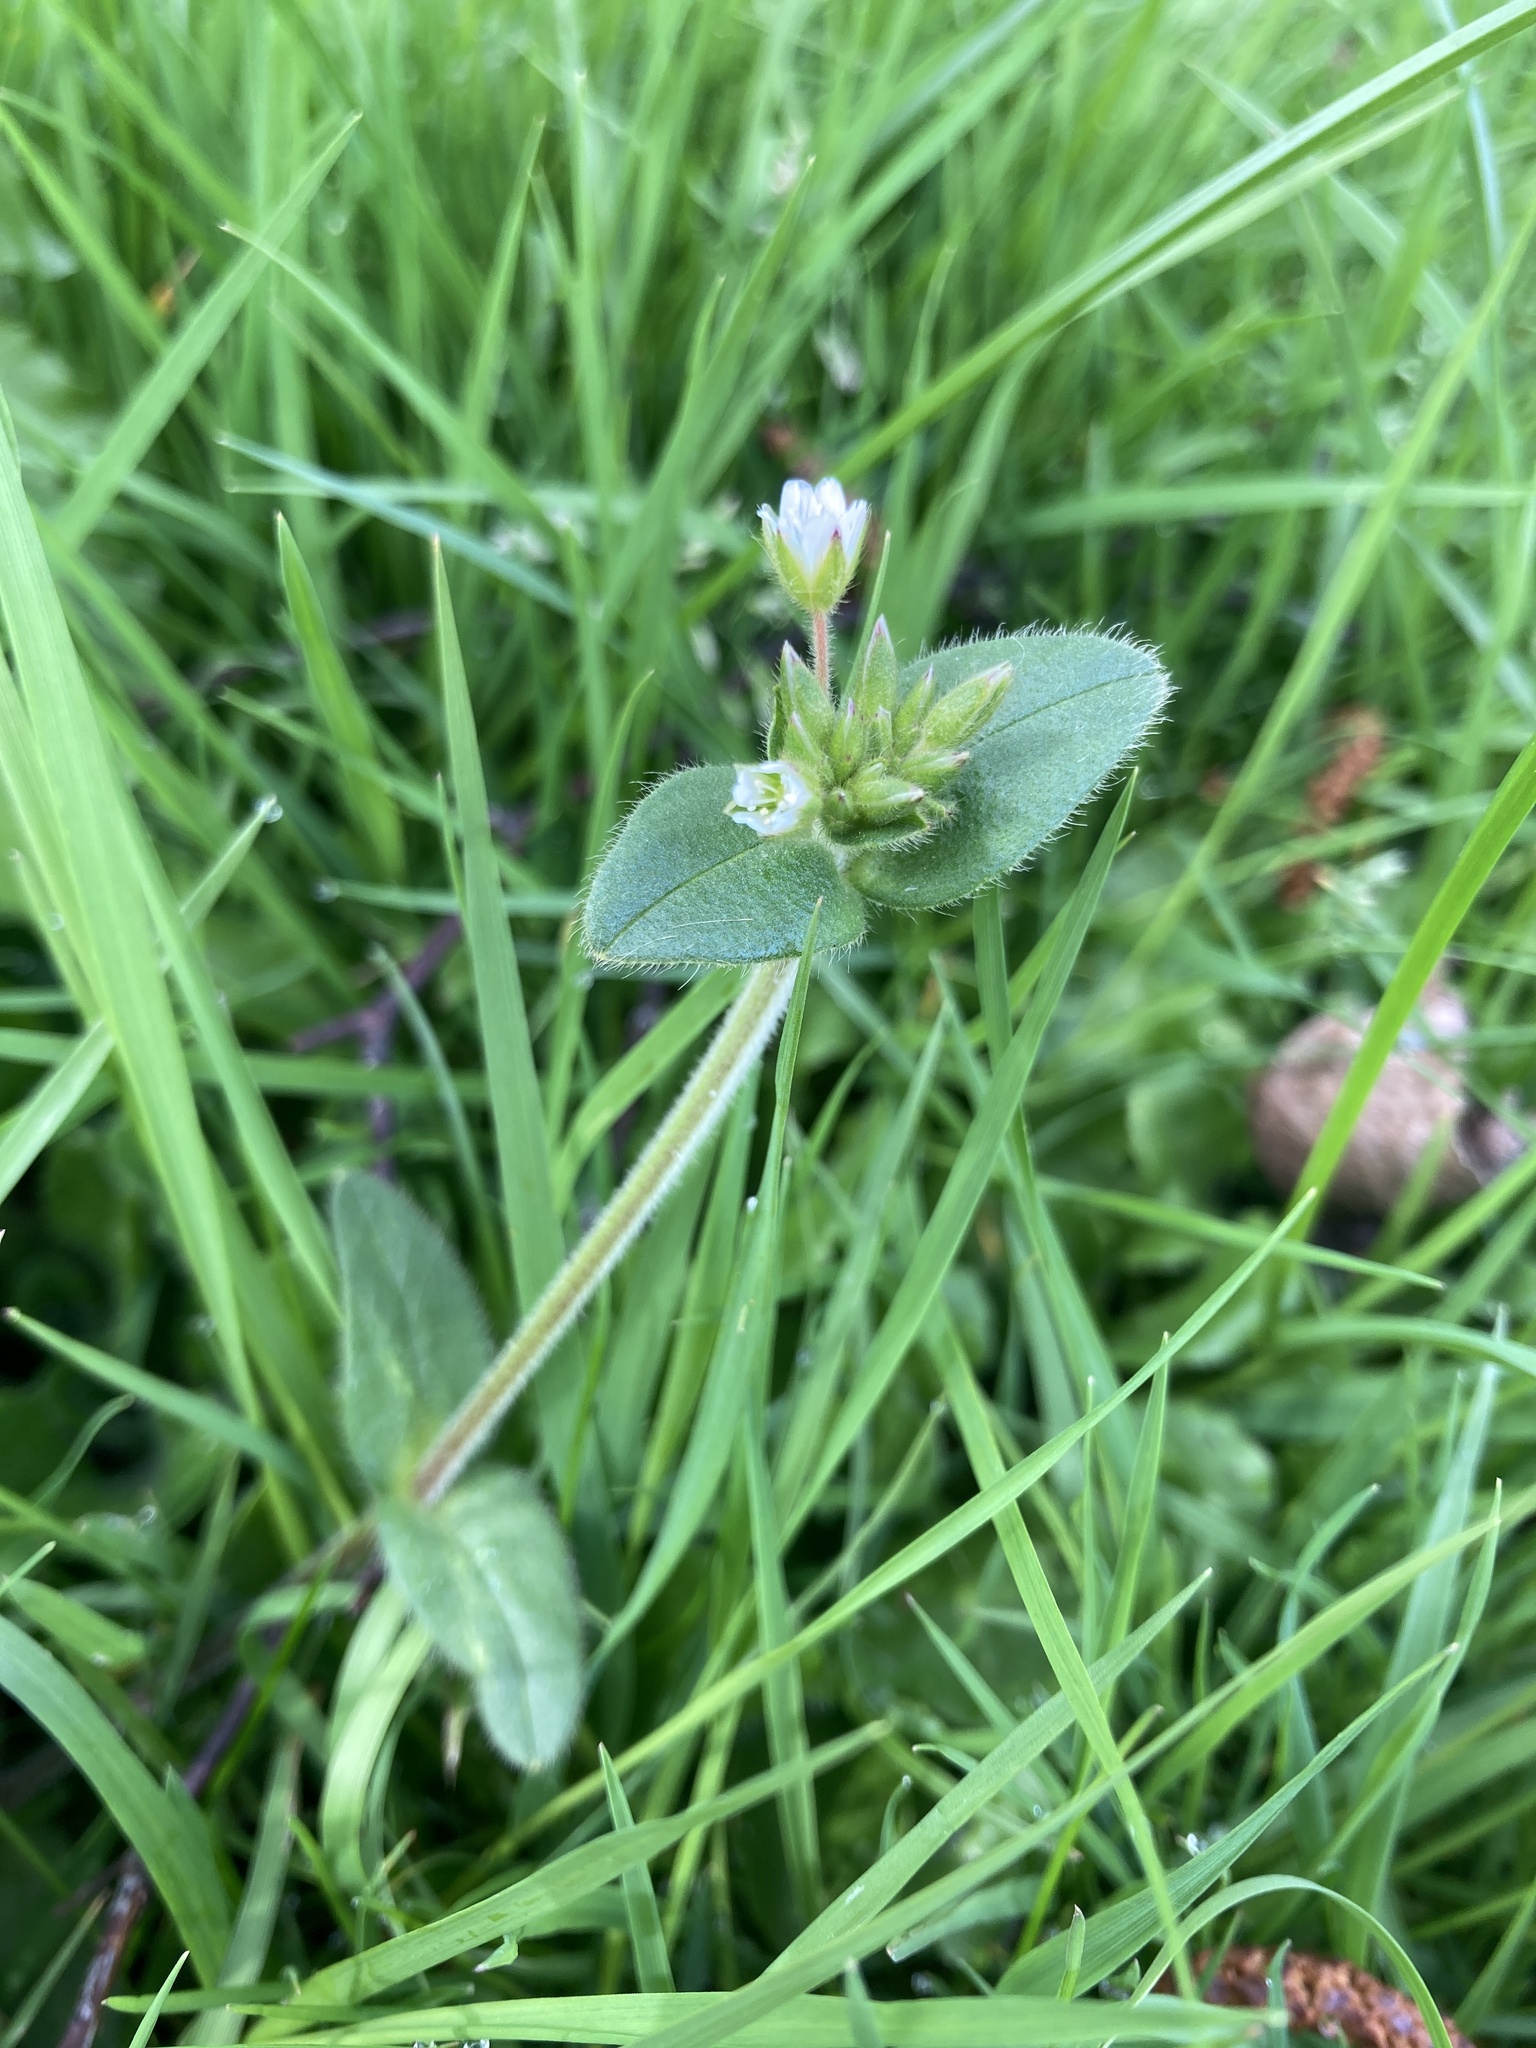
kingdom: Plantae
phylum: Tracheophyta
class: Magnoliopsida
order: Caryophyllales
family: Caryophyllaceae
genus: Cerastium
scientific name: Cerastium fontanum
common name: Common mouse-ear
